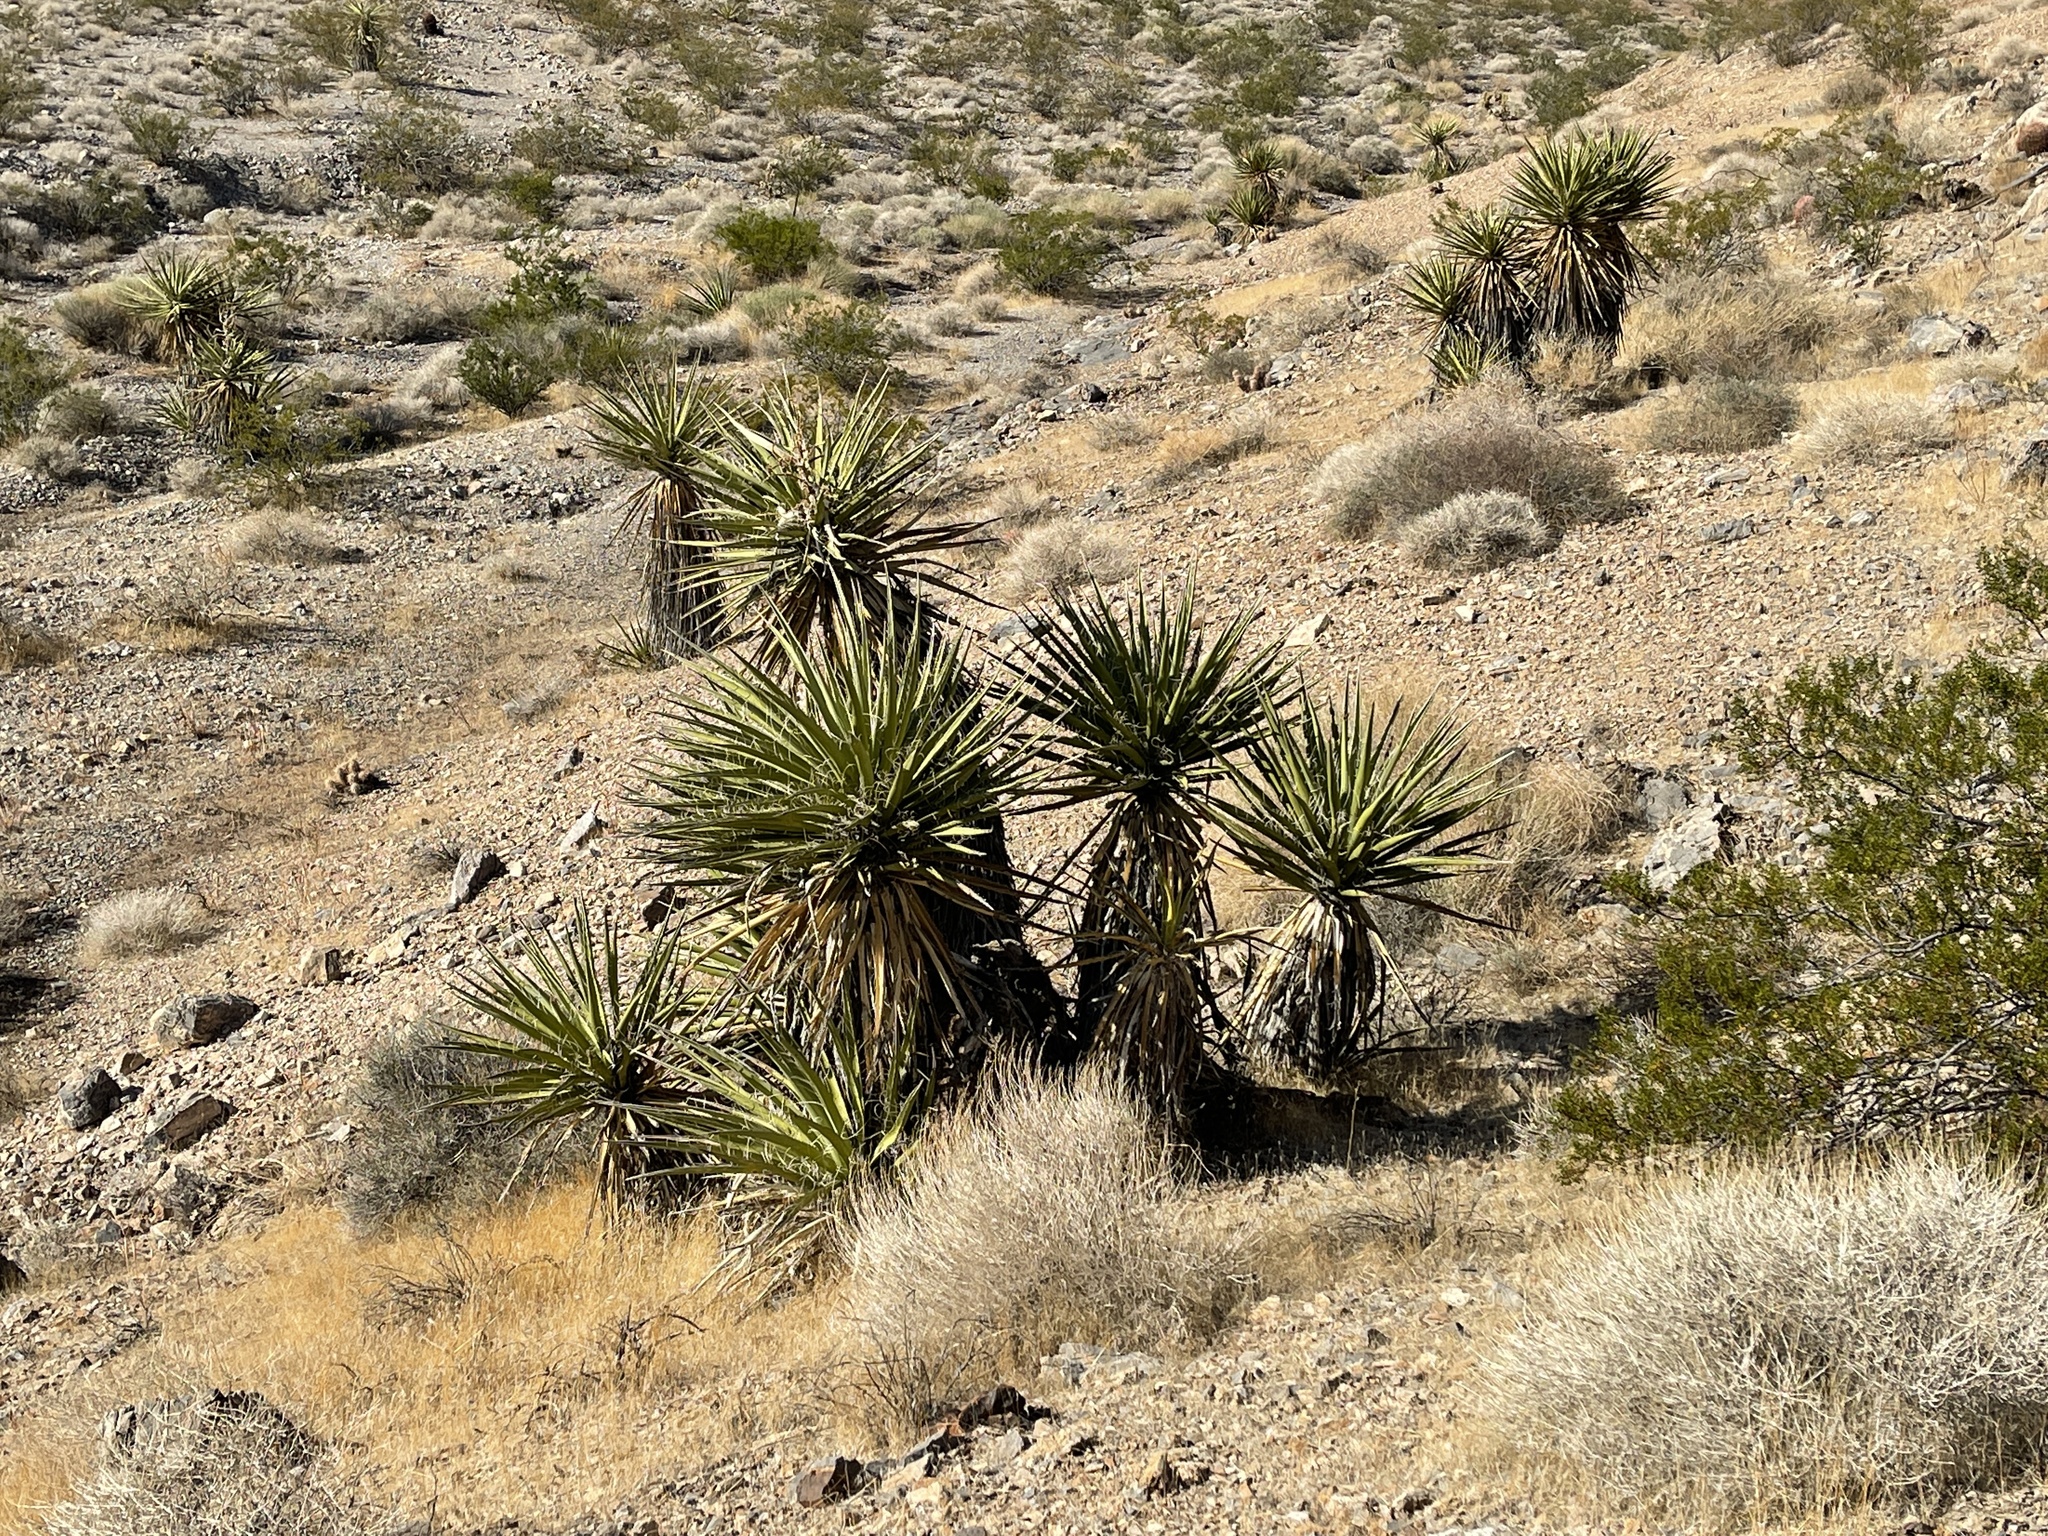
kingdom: Plantae
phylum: Tracheophyta
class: Liliopsida
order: Asparagales
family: Asparagaceae
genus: Yucca
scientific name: Yucca schidigera
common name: Mojave yucca
